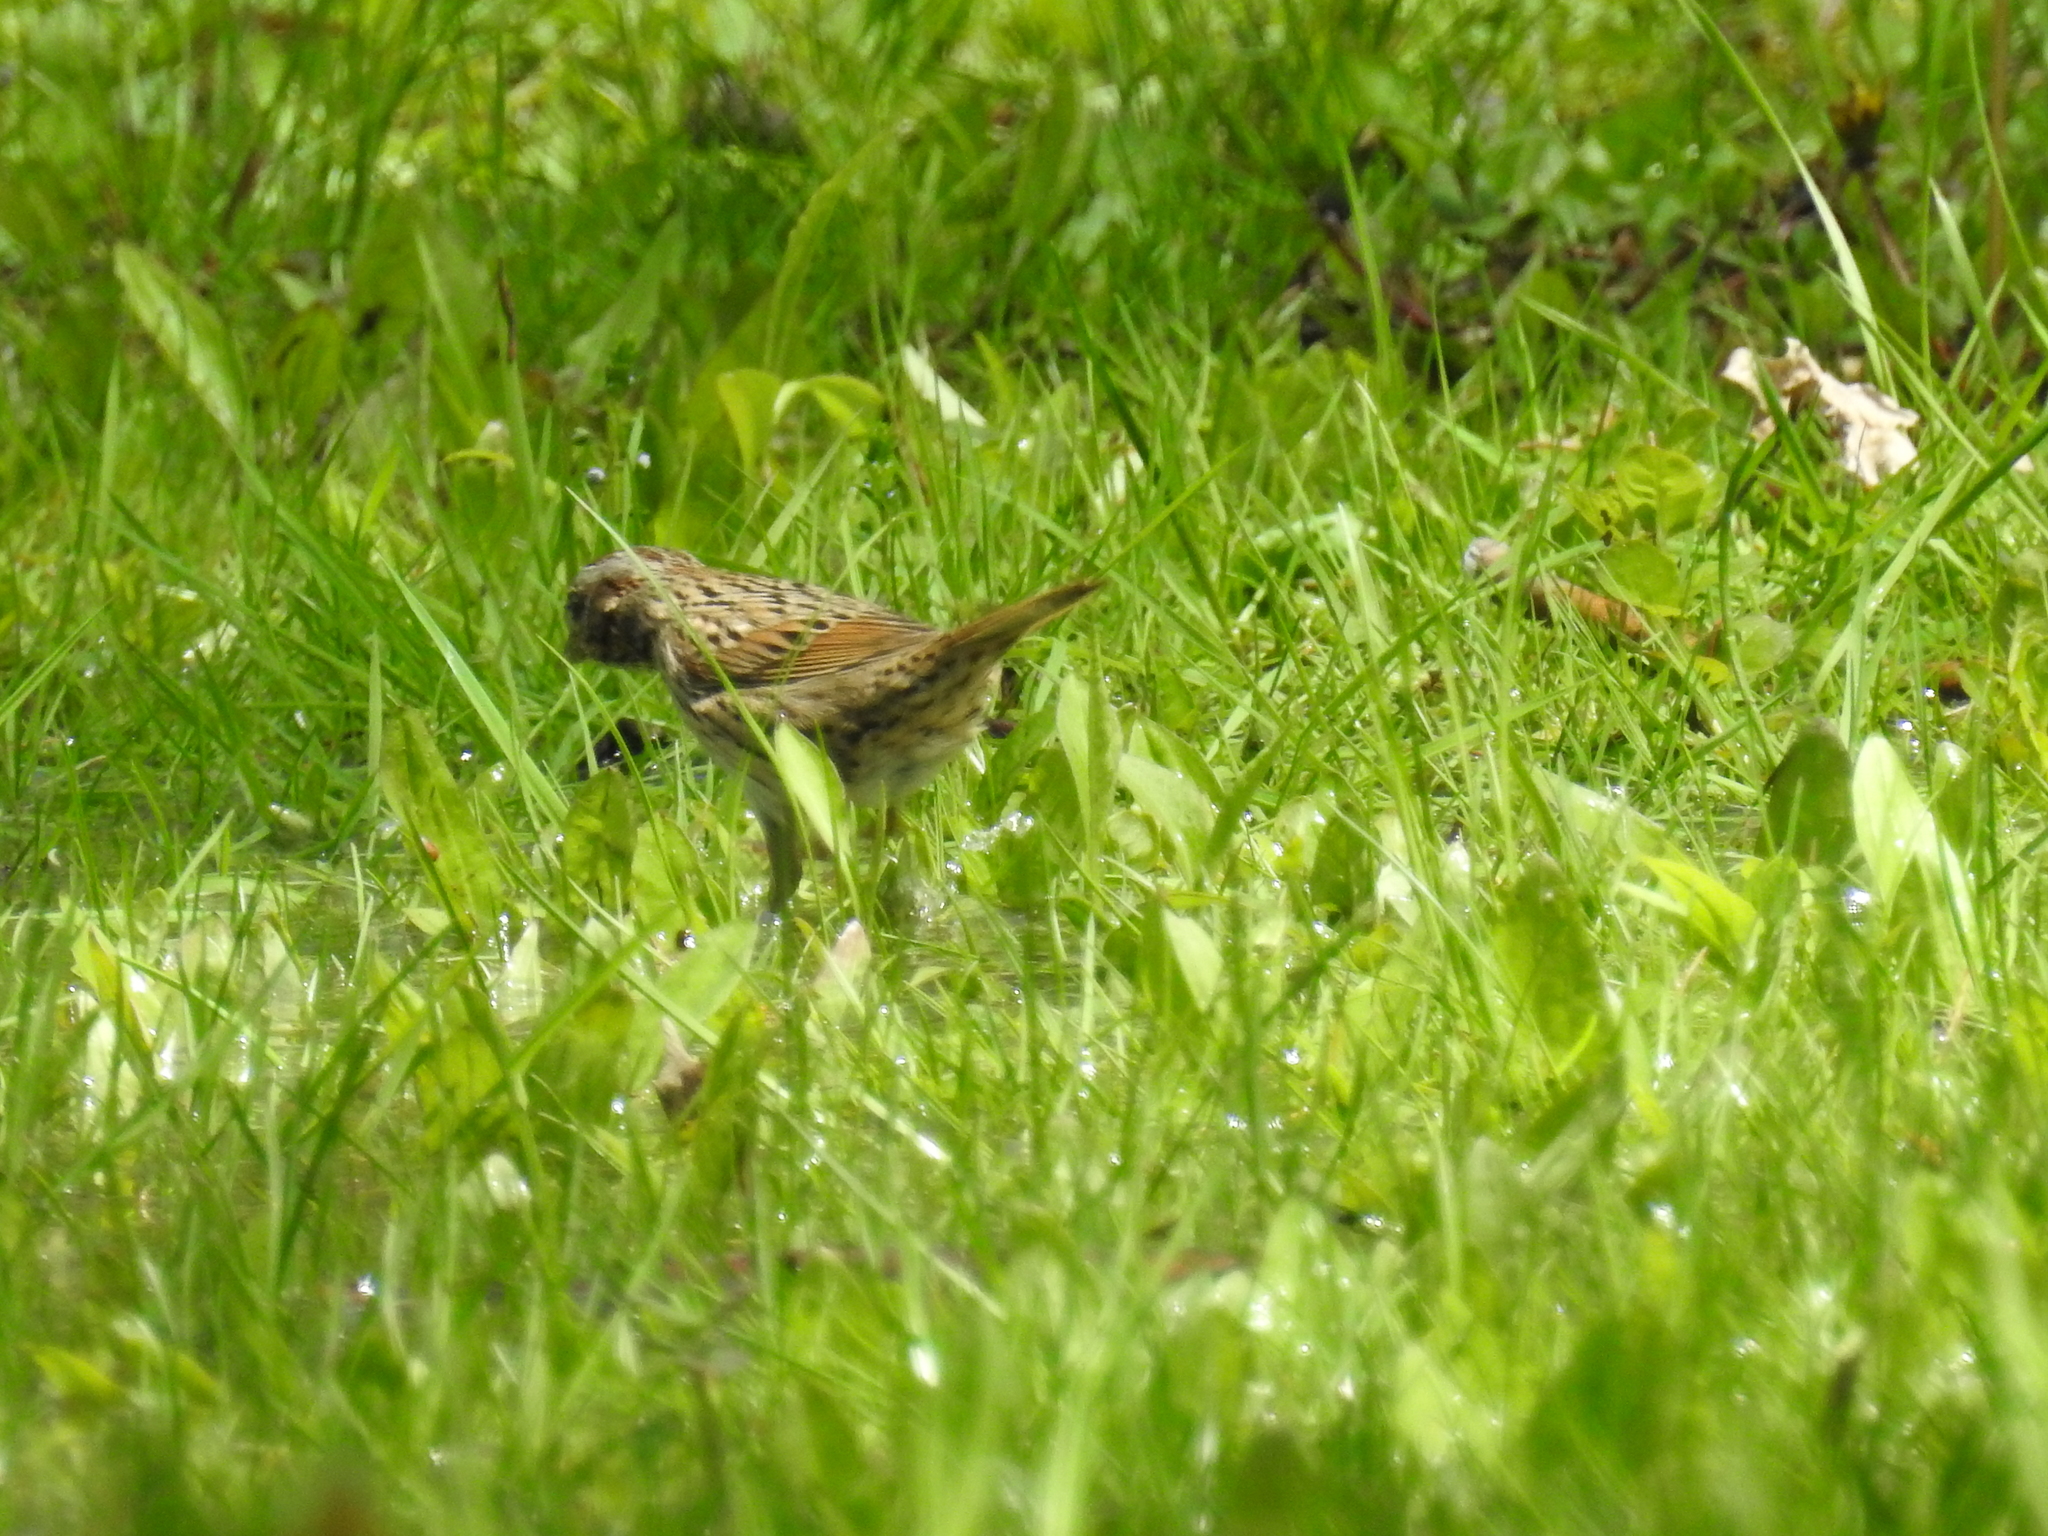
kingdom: Animalia
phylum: Chordata
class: Aves
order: Passeriformes
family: Passerellidae
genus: Melospiza
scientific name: Melospiza lincolnii
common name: Lincoln's sparrow
